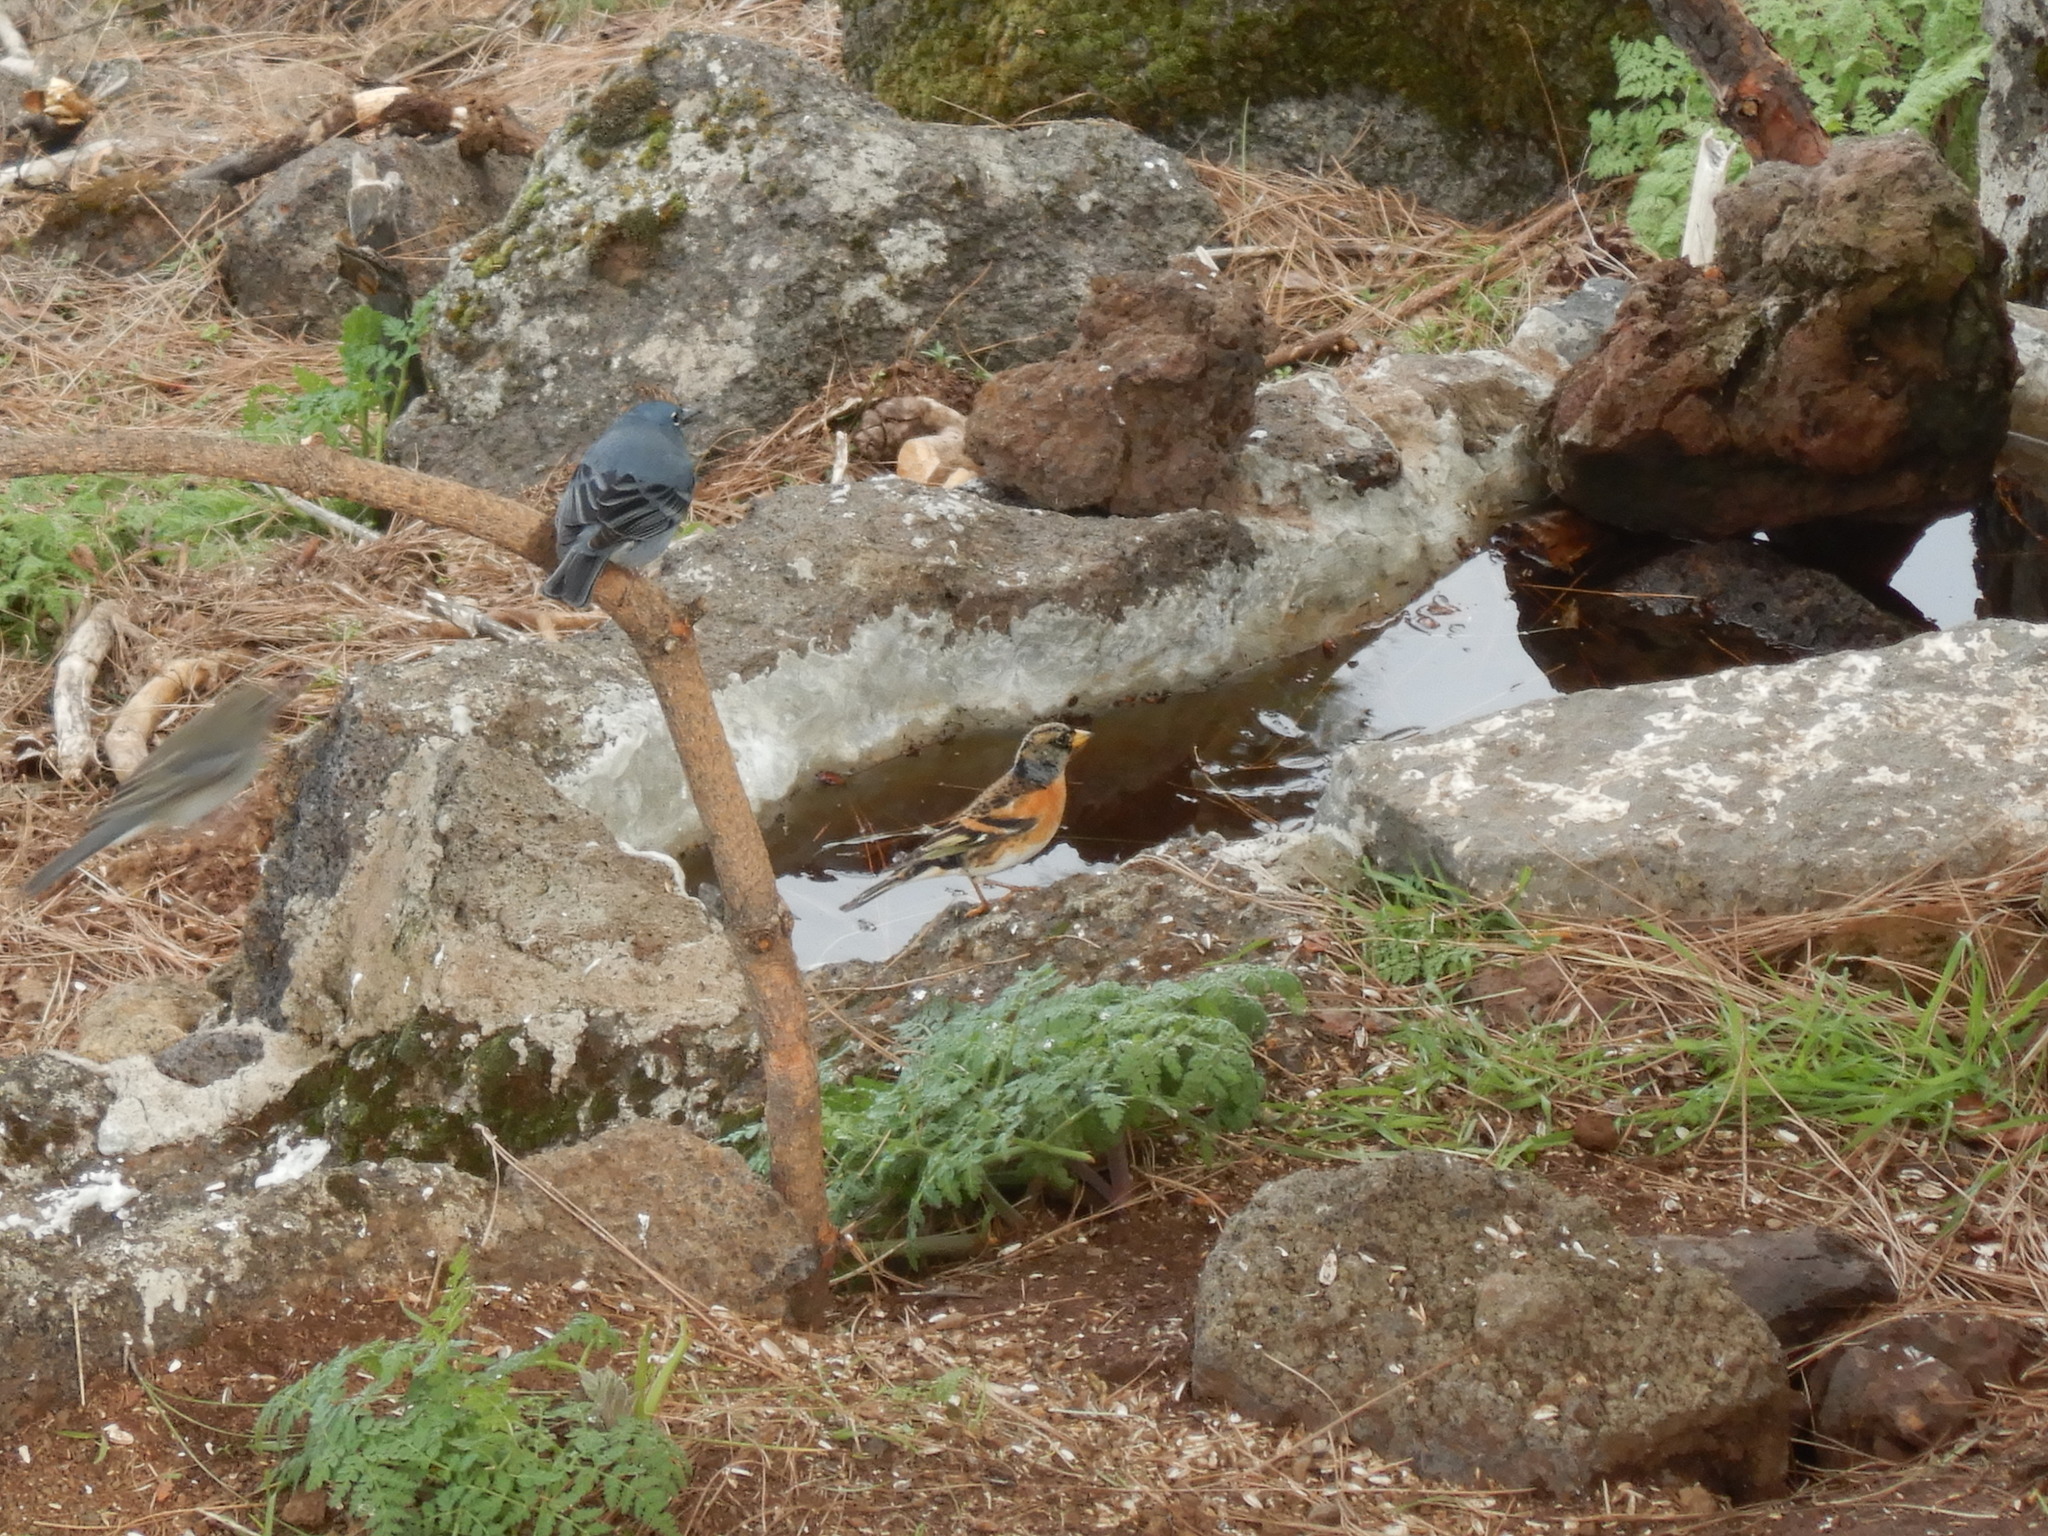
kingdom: Animalia
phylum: Chordata
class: Aves
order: Passeriformes
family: Fringillidae
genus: Fringilla
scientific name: Fringilla teydea
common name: Blue chaffinch
